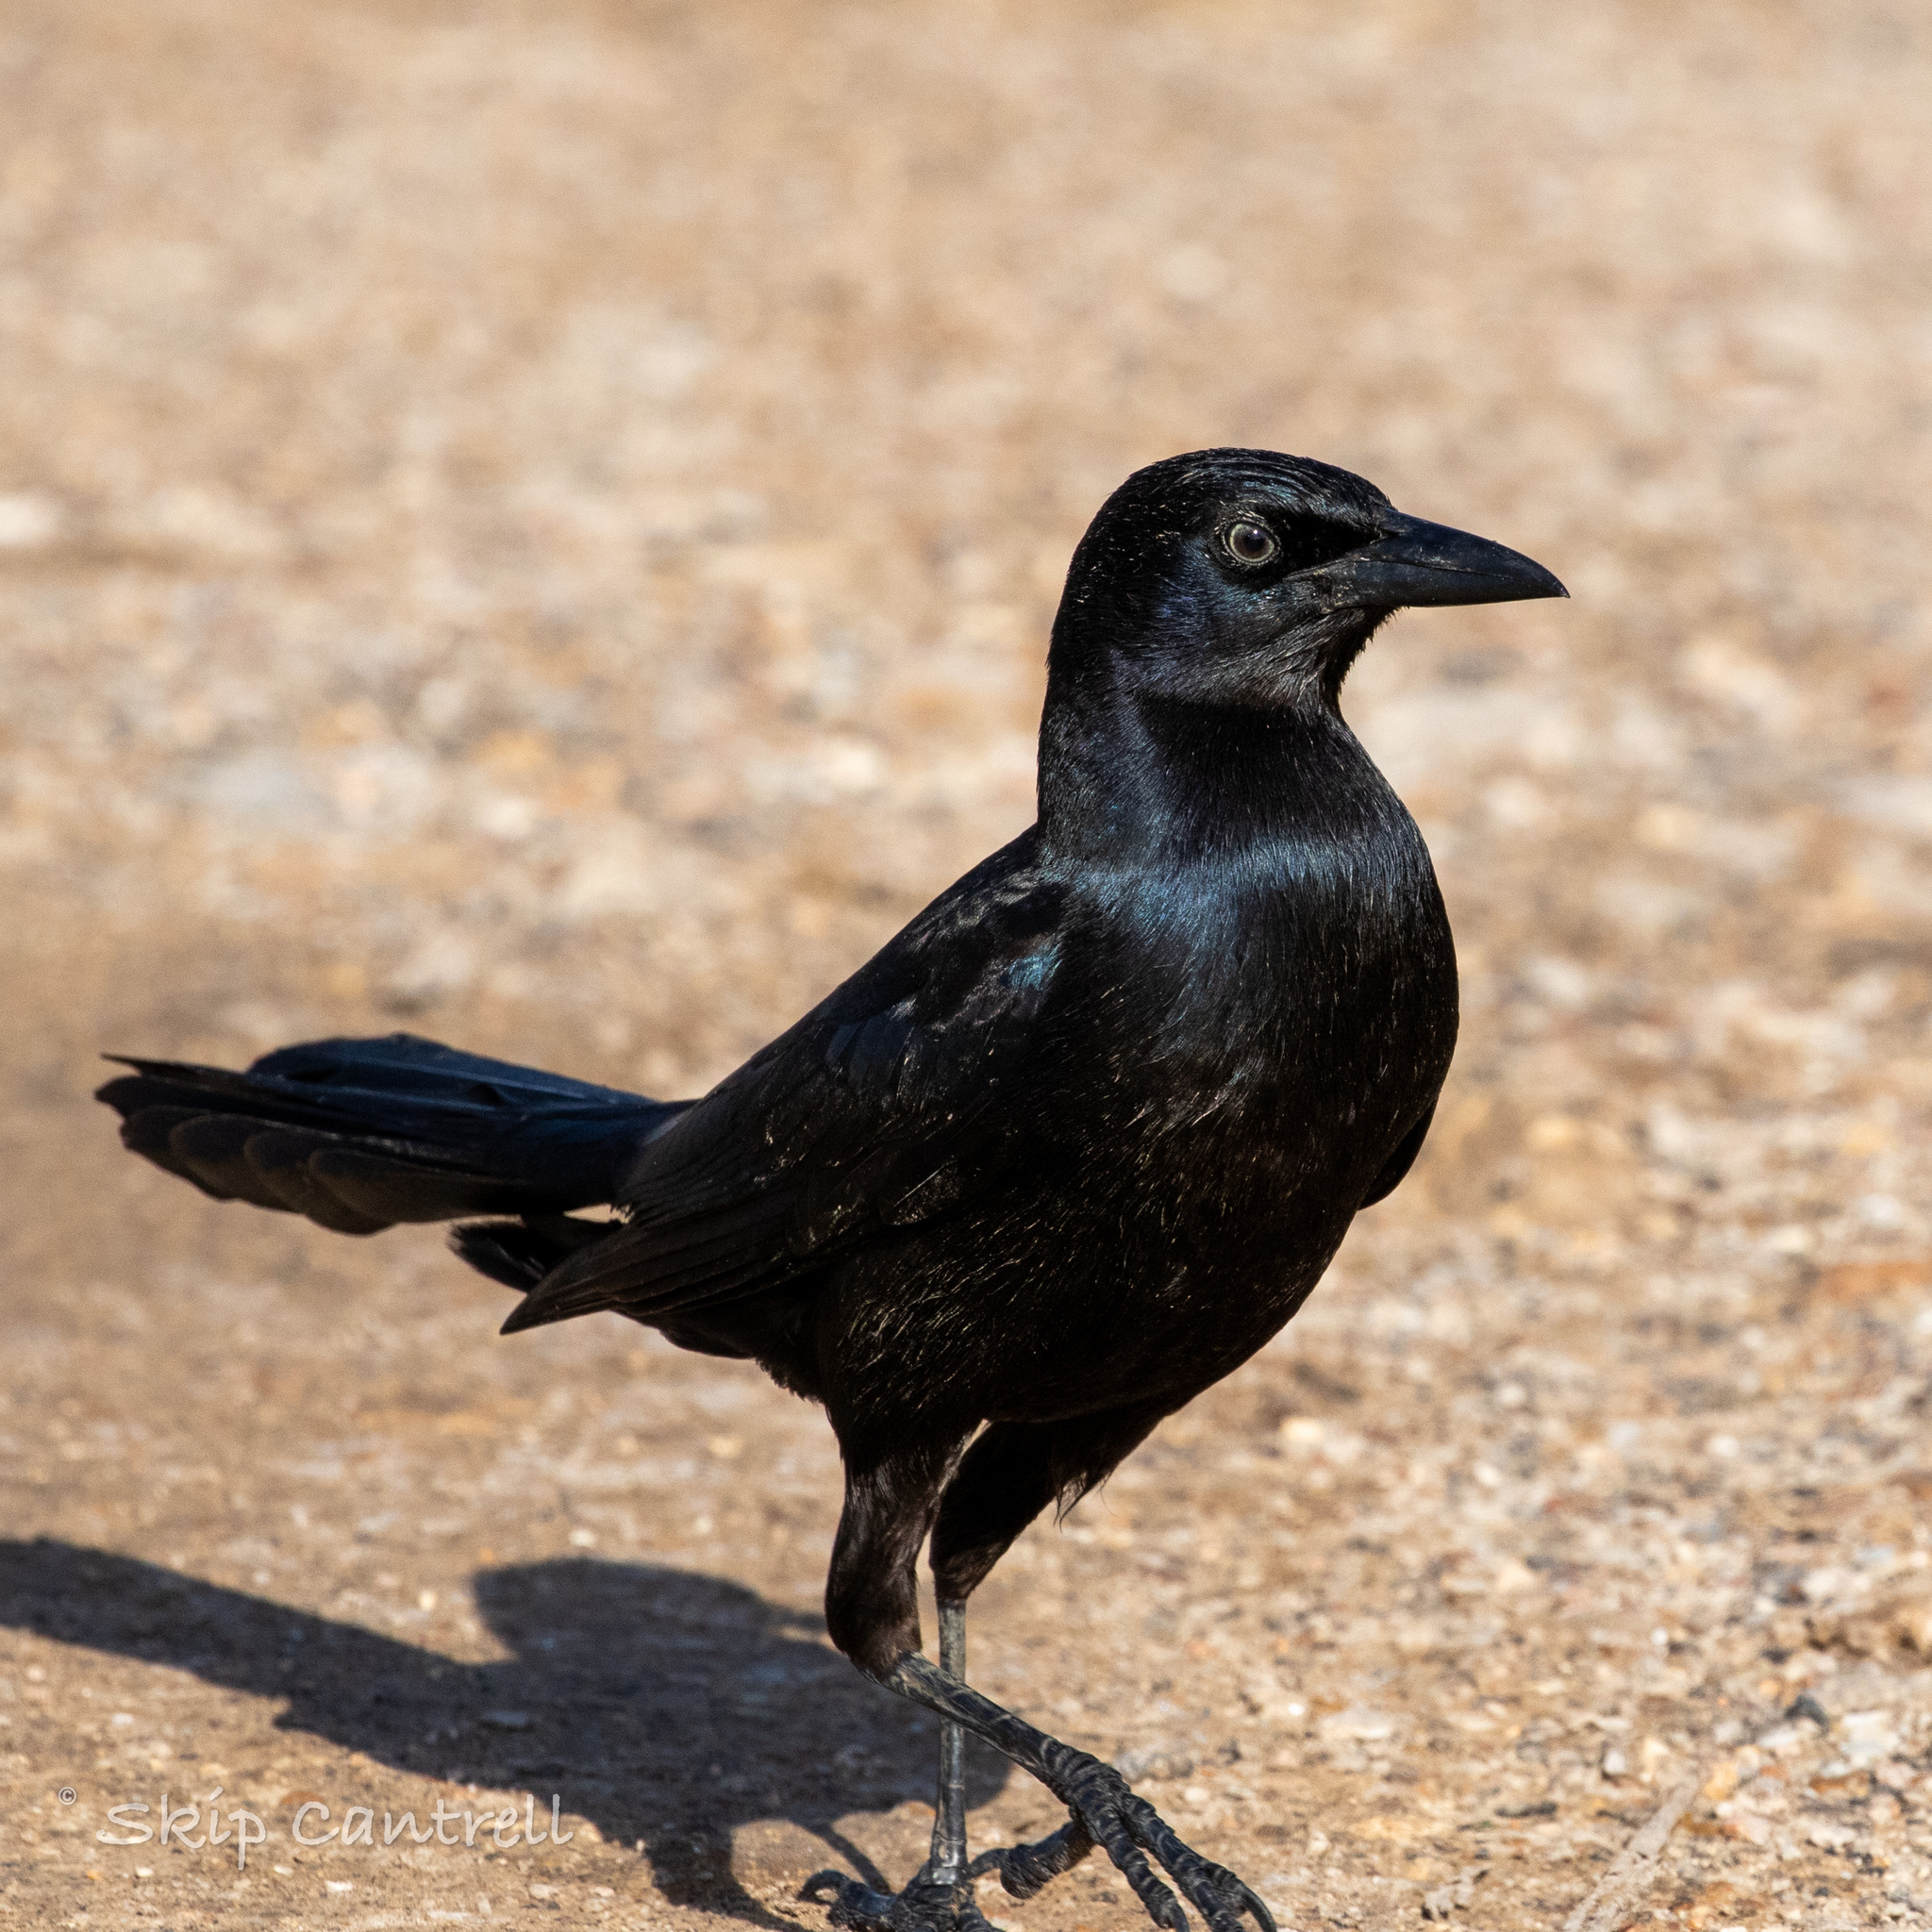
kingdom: Animalia
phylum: Chordata
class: Aves
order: Passeriformes
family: Icteridae
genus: Quiscalus
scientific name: Quiscalus major
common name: Boat-tailed grackle
